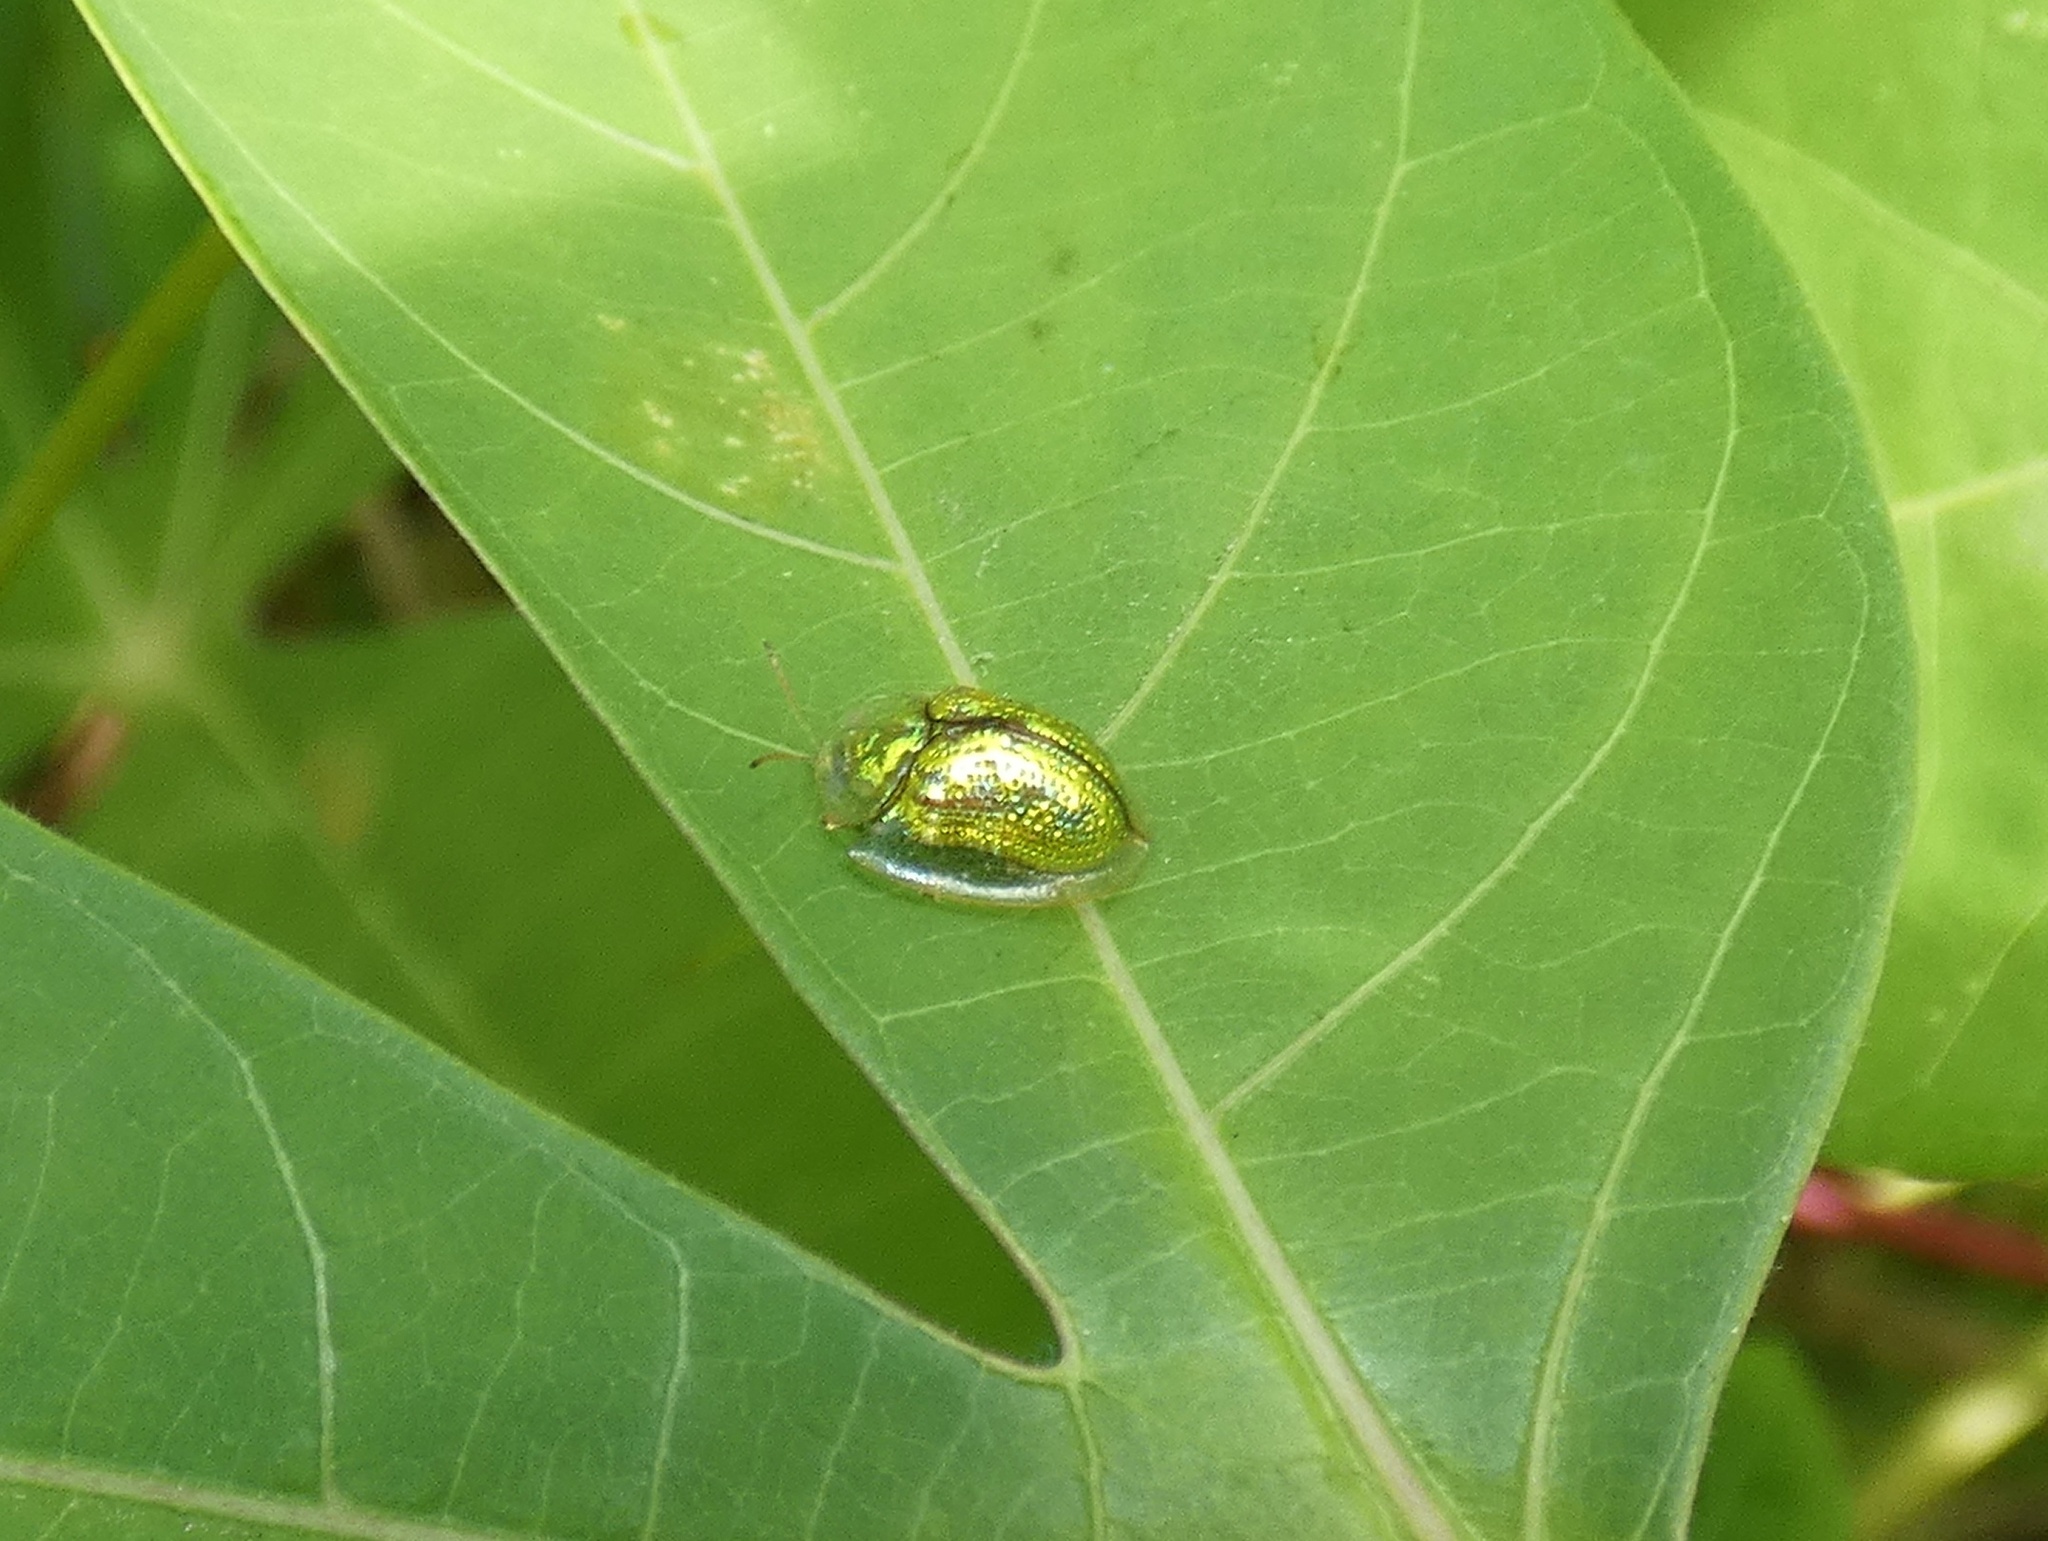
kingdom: Animalia
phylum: Arthropoda
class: Insecta
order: Coleoptera
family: Chrysomelidae
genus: Cassida
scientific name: Cassida circumdata
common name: Tortoise beetle
